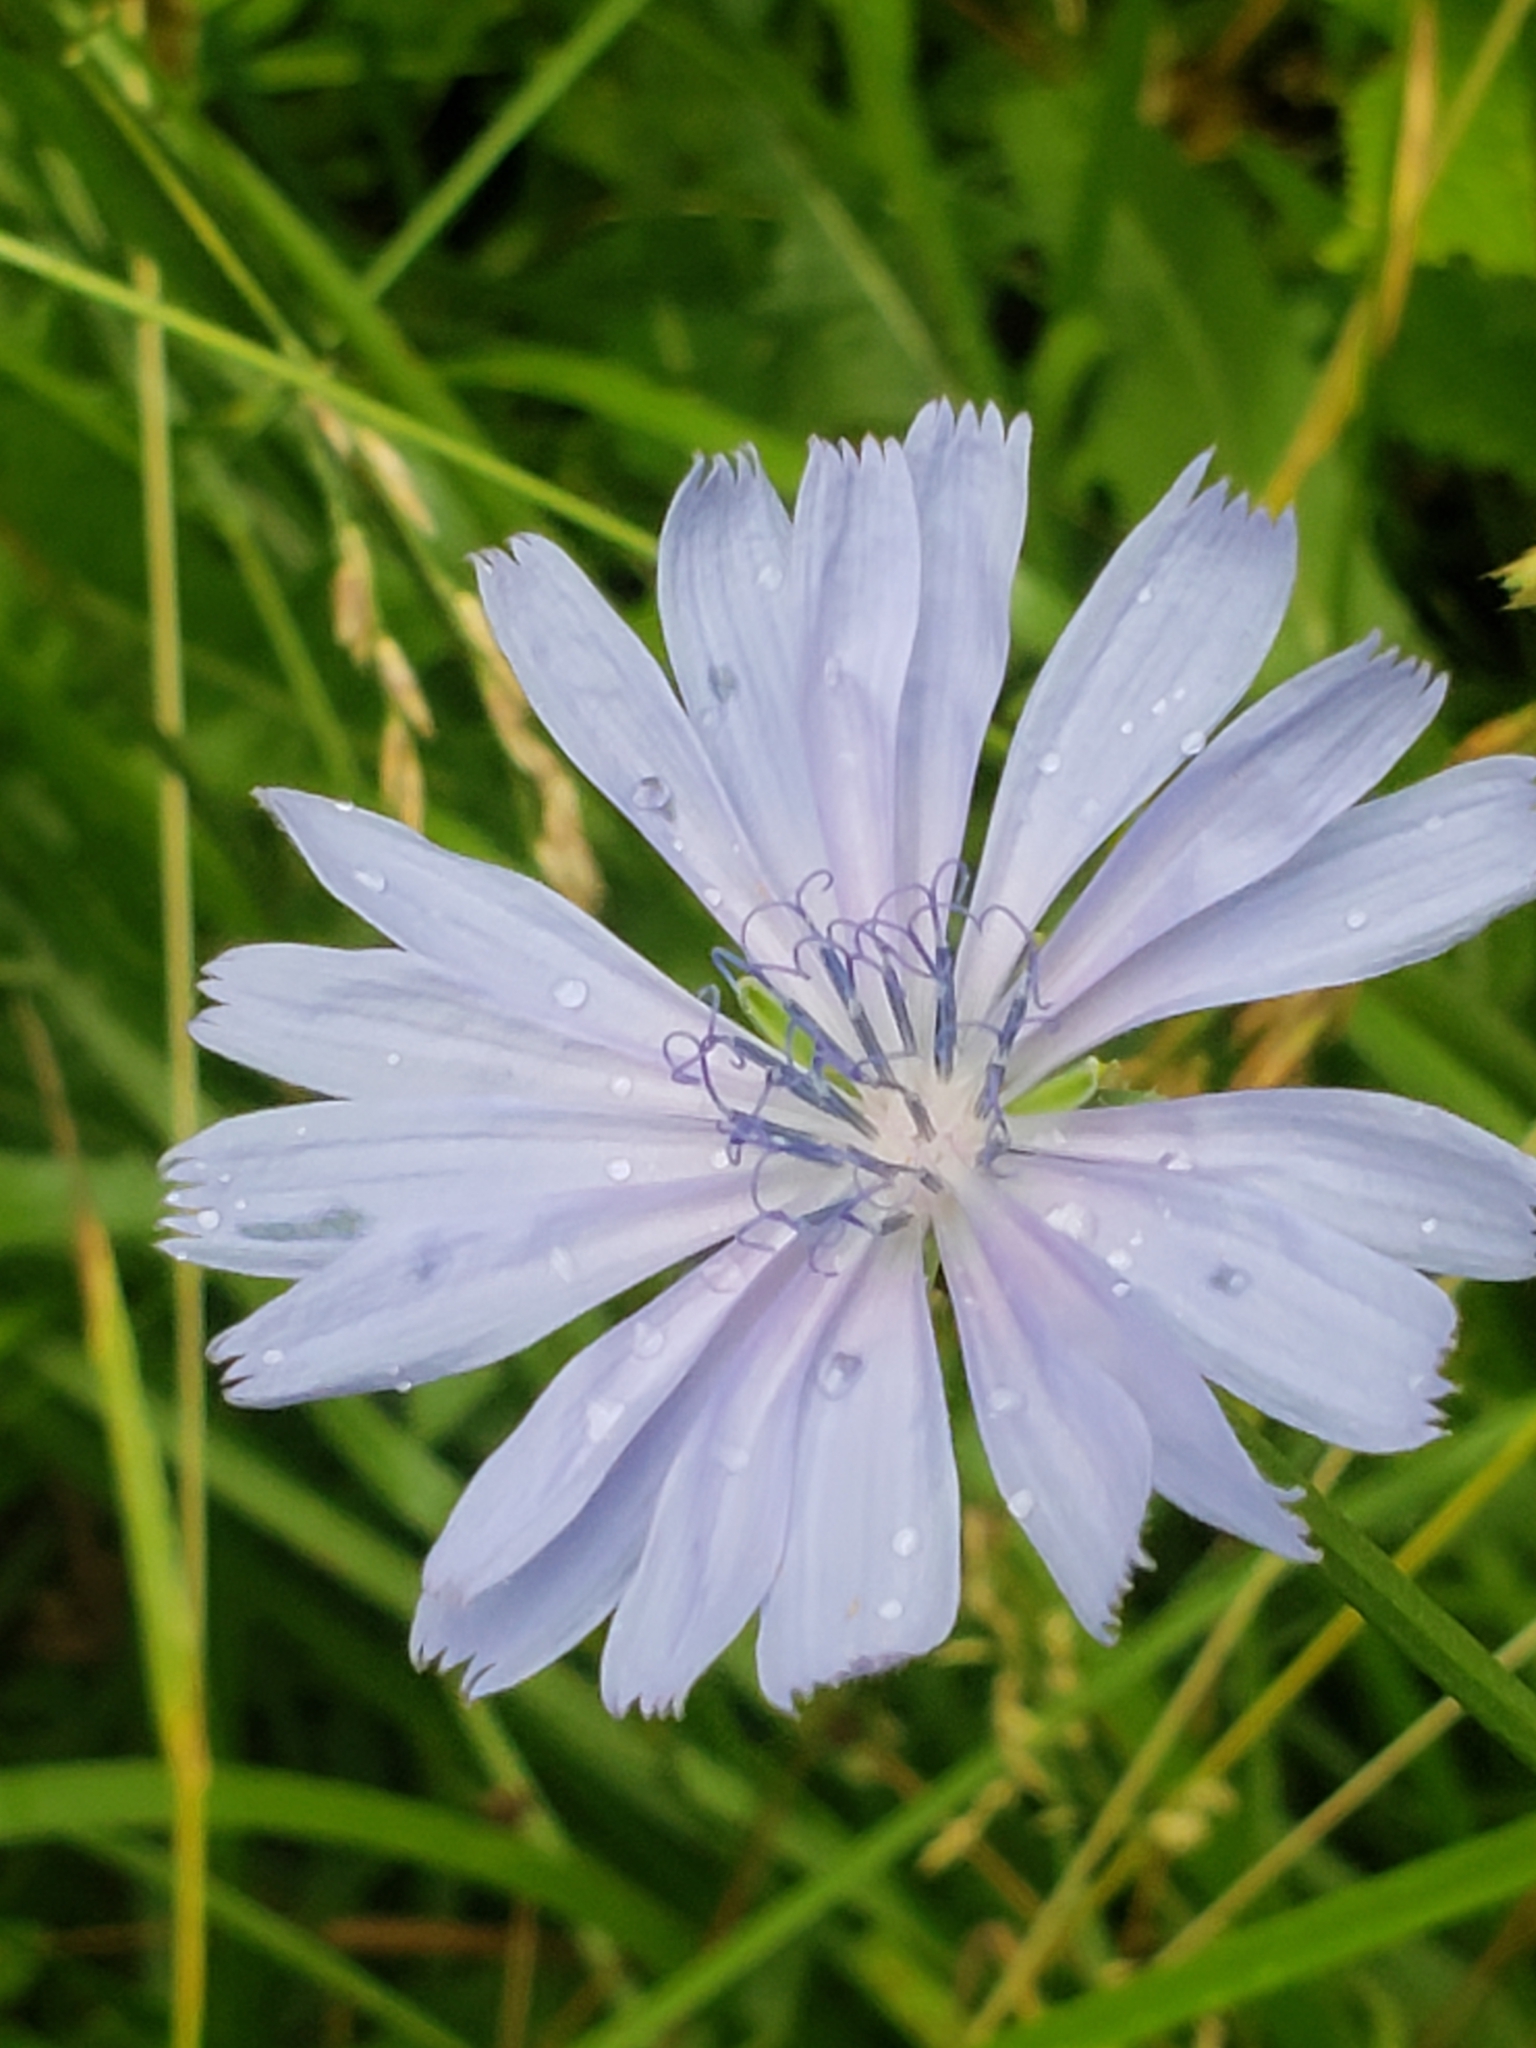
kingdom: Plantae
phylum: Tracheophyta
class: Magnoliopsida
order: Asterales
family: Asteraceae
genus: Cichorium
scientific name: Cichorium intybus
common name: Chicory
